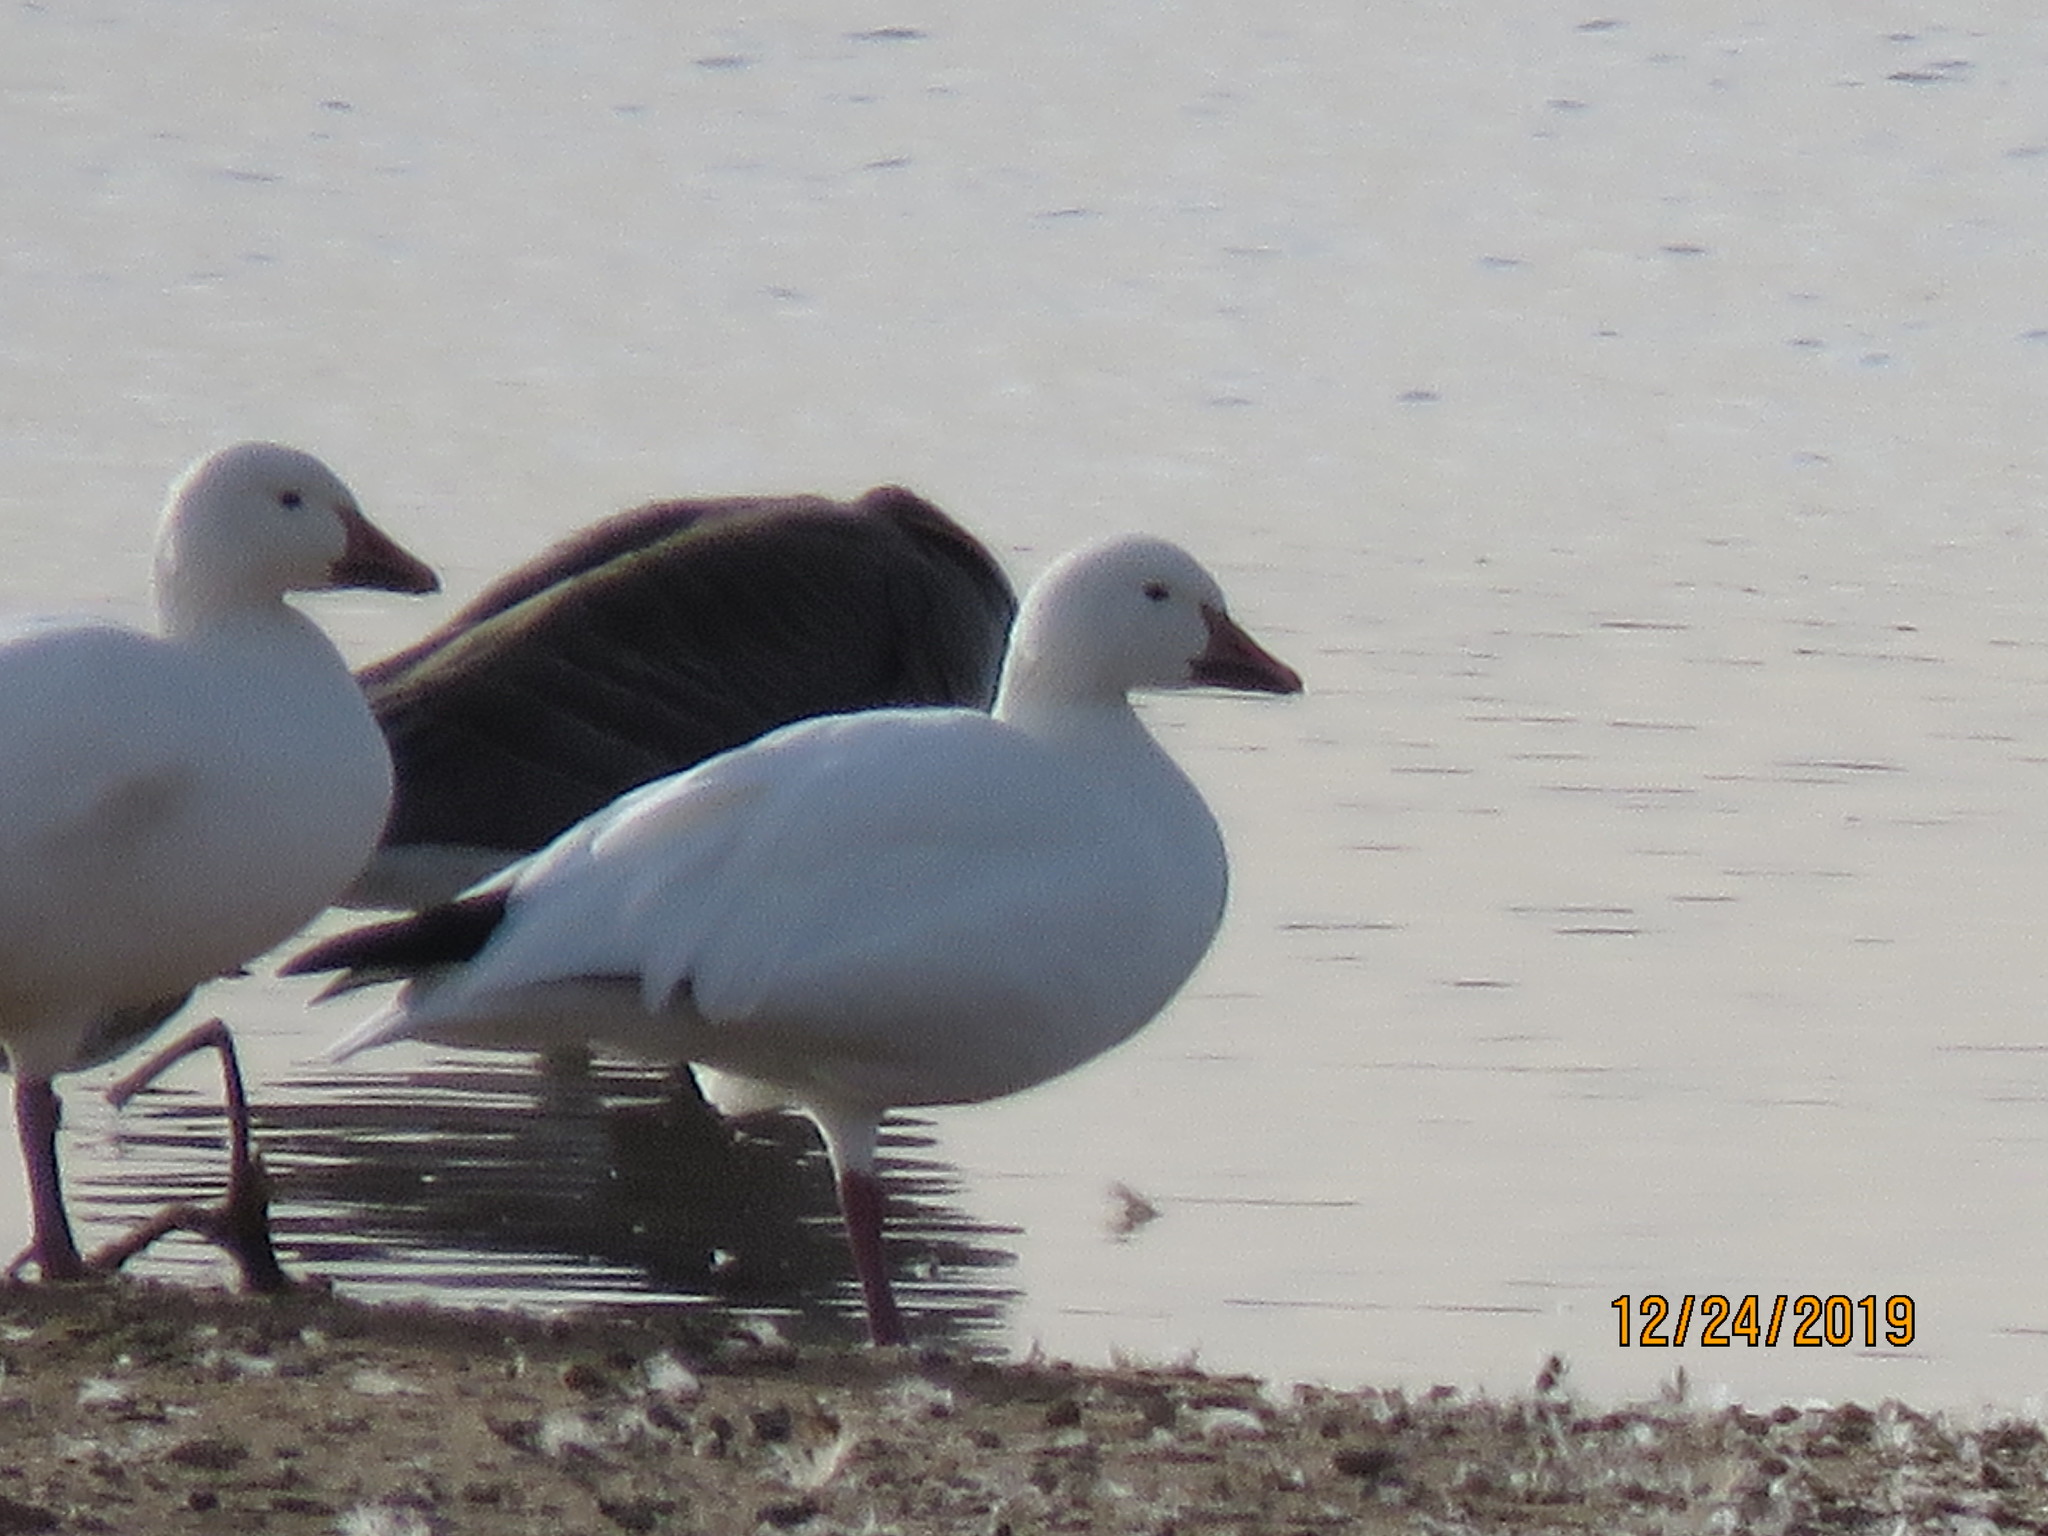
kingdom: Animalia
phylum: Chordata
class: Aves
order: Anseriformes
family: Anatidae
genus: Anser
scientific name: Anser caerulescens
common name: Snow goose
